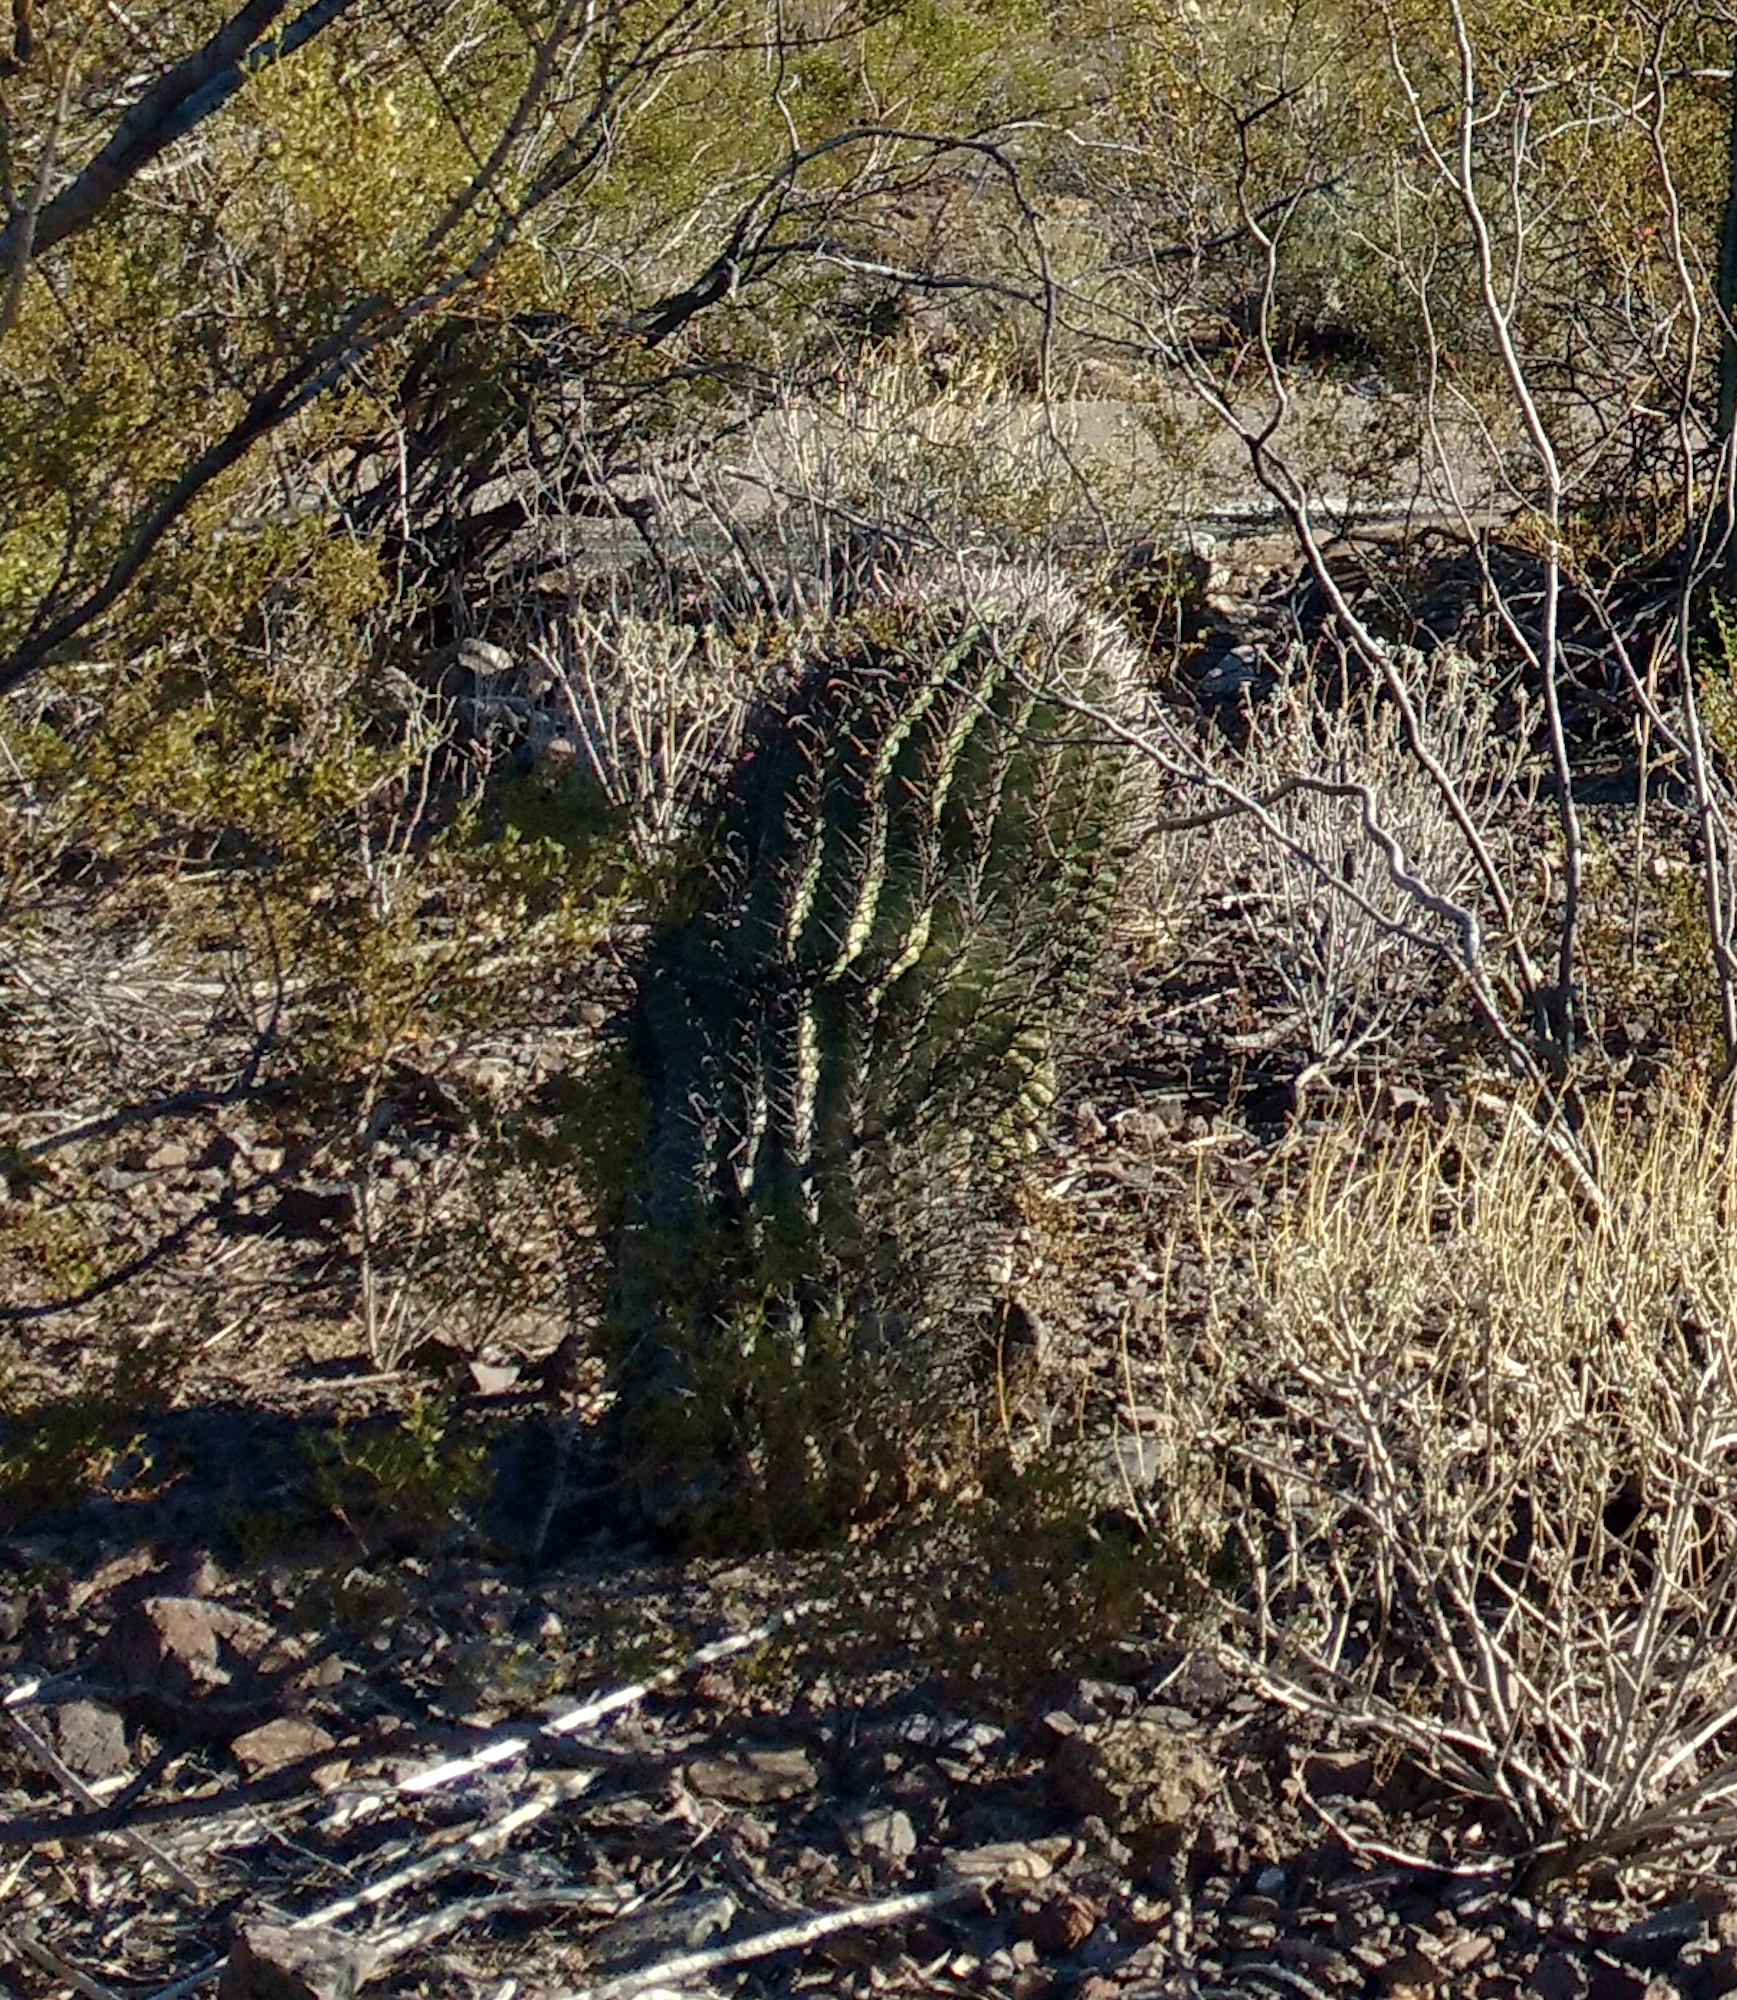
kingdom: Plantae
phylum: Tracheophyta
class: Magnoliopsida
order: Caryophyllales
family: Cactaceae
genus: Ferocactus
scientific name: Ferocactus wislizeni
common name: Candy barrel cactus
